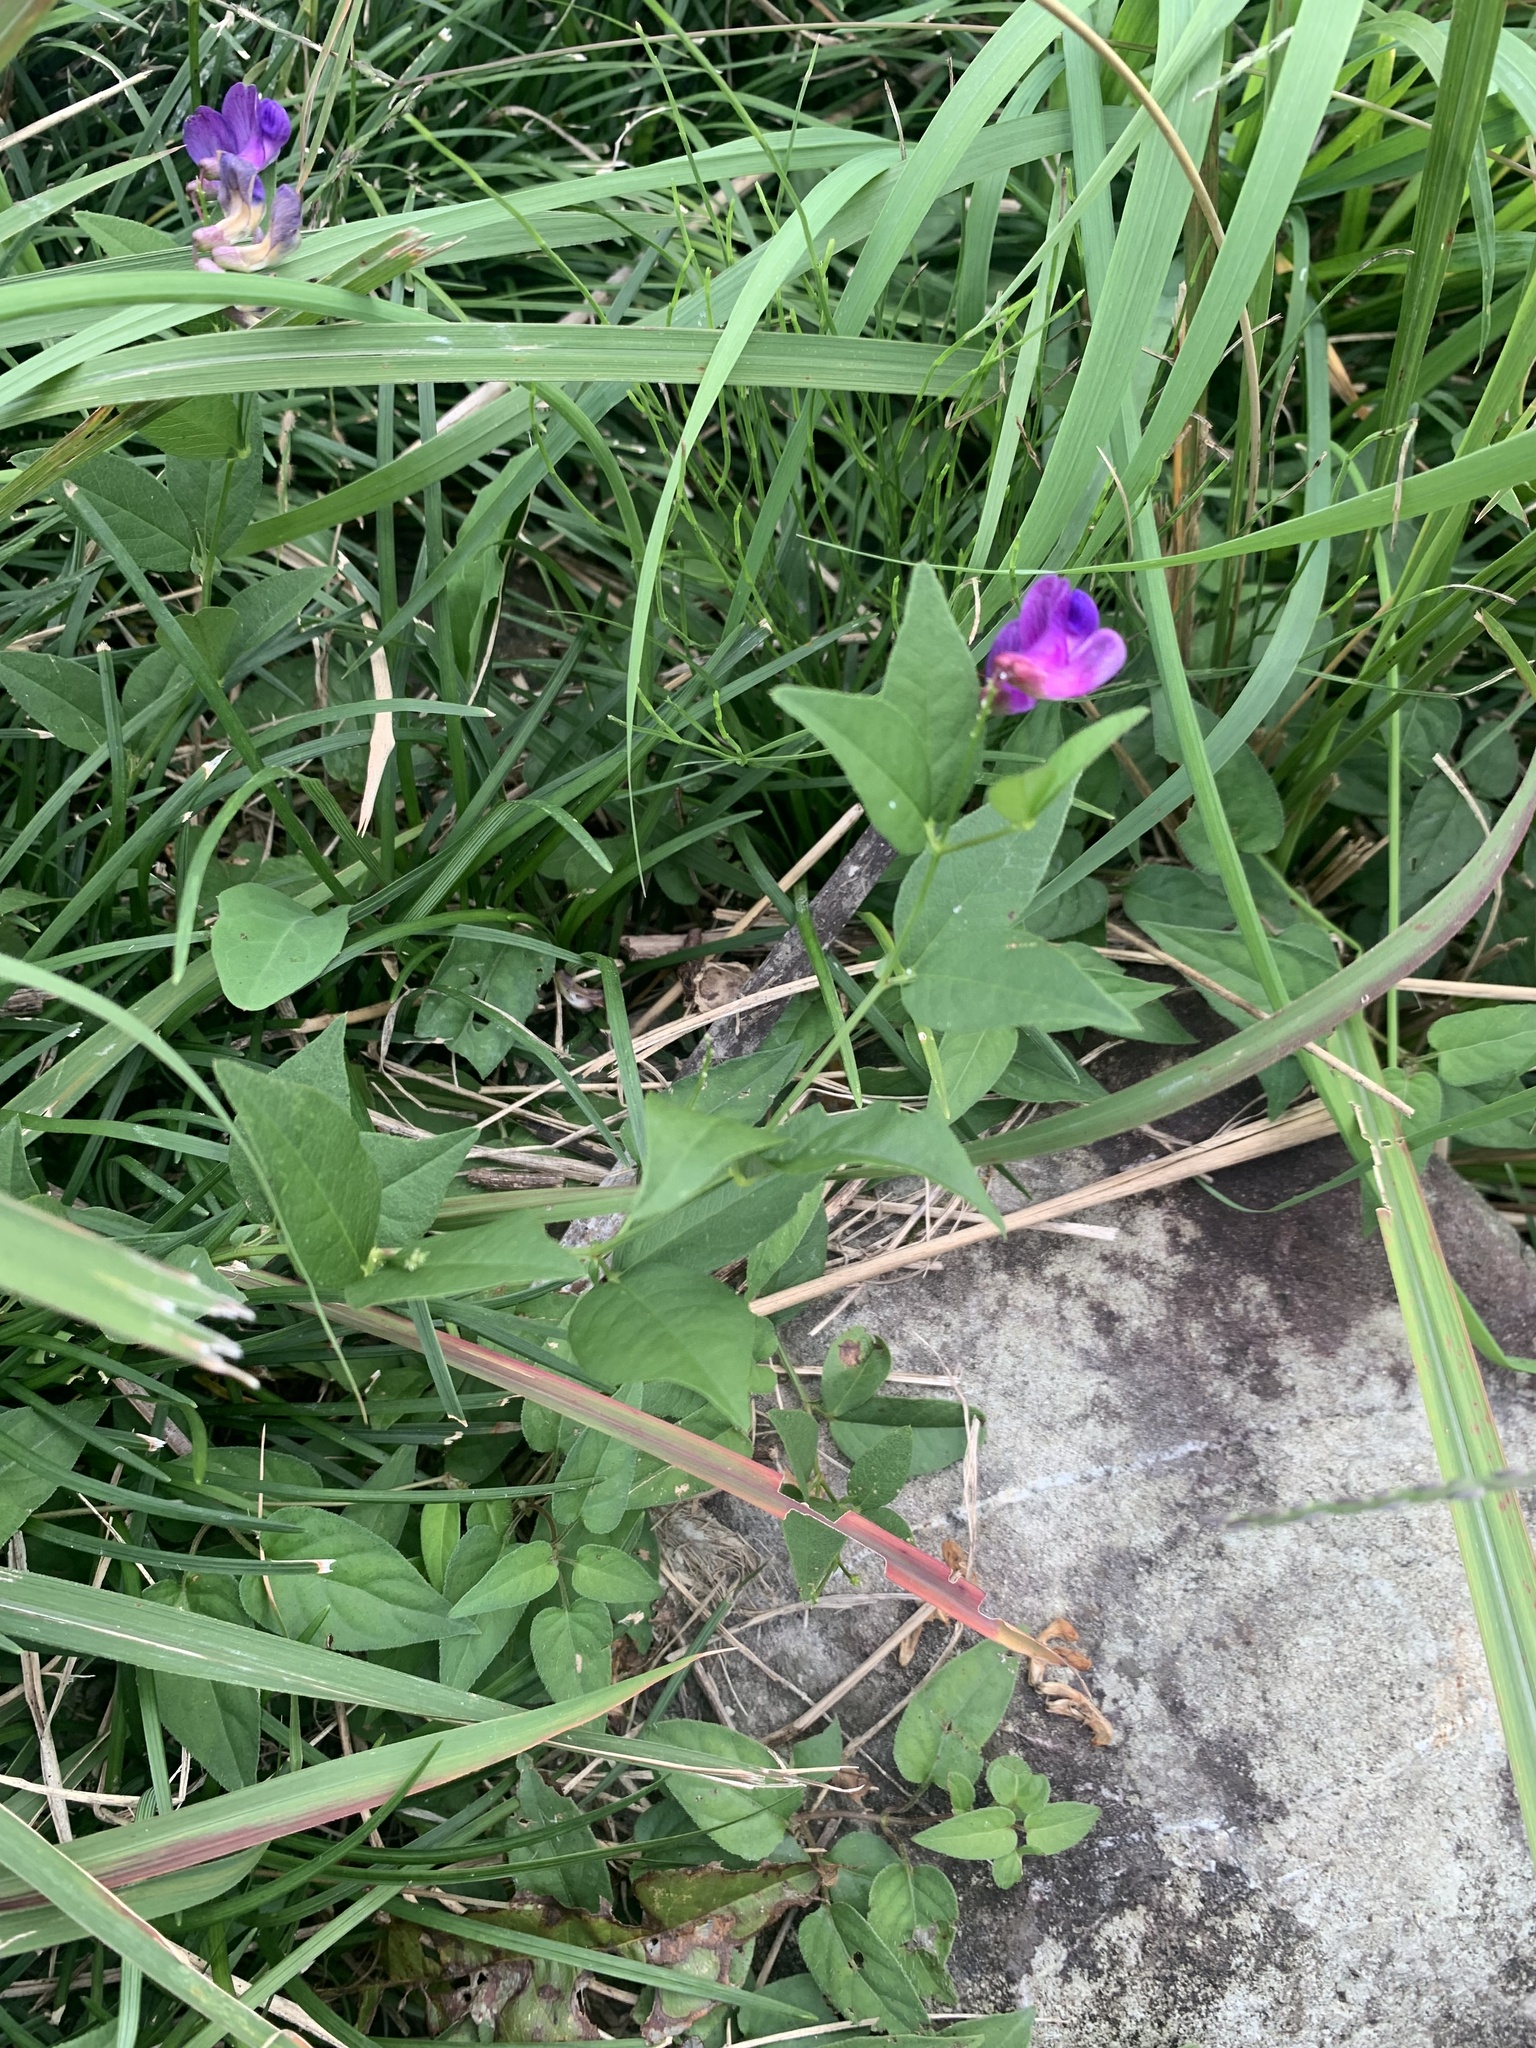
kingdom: Plantae
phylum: Tracheophyta
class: Magnoliopsida
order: Fabales
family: Fabaceae
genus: Vicia
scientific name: Vicia unijuga
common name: Two-leaf vetch
